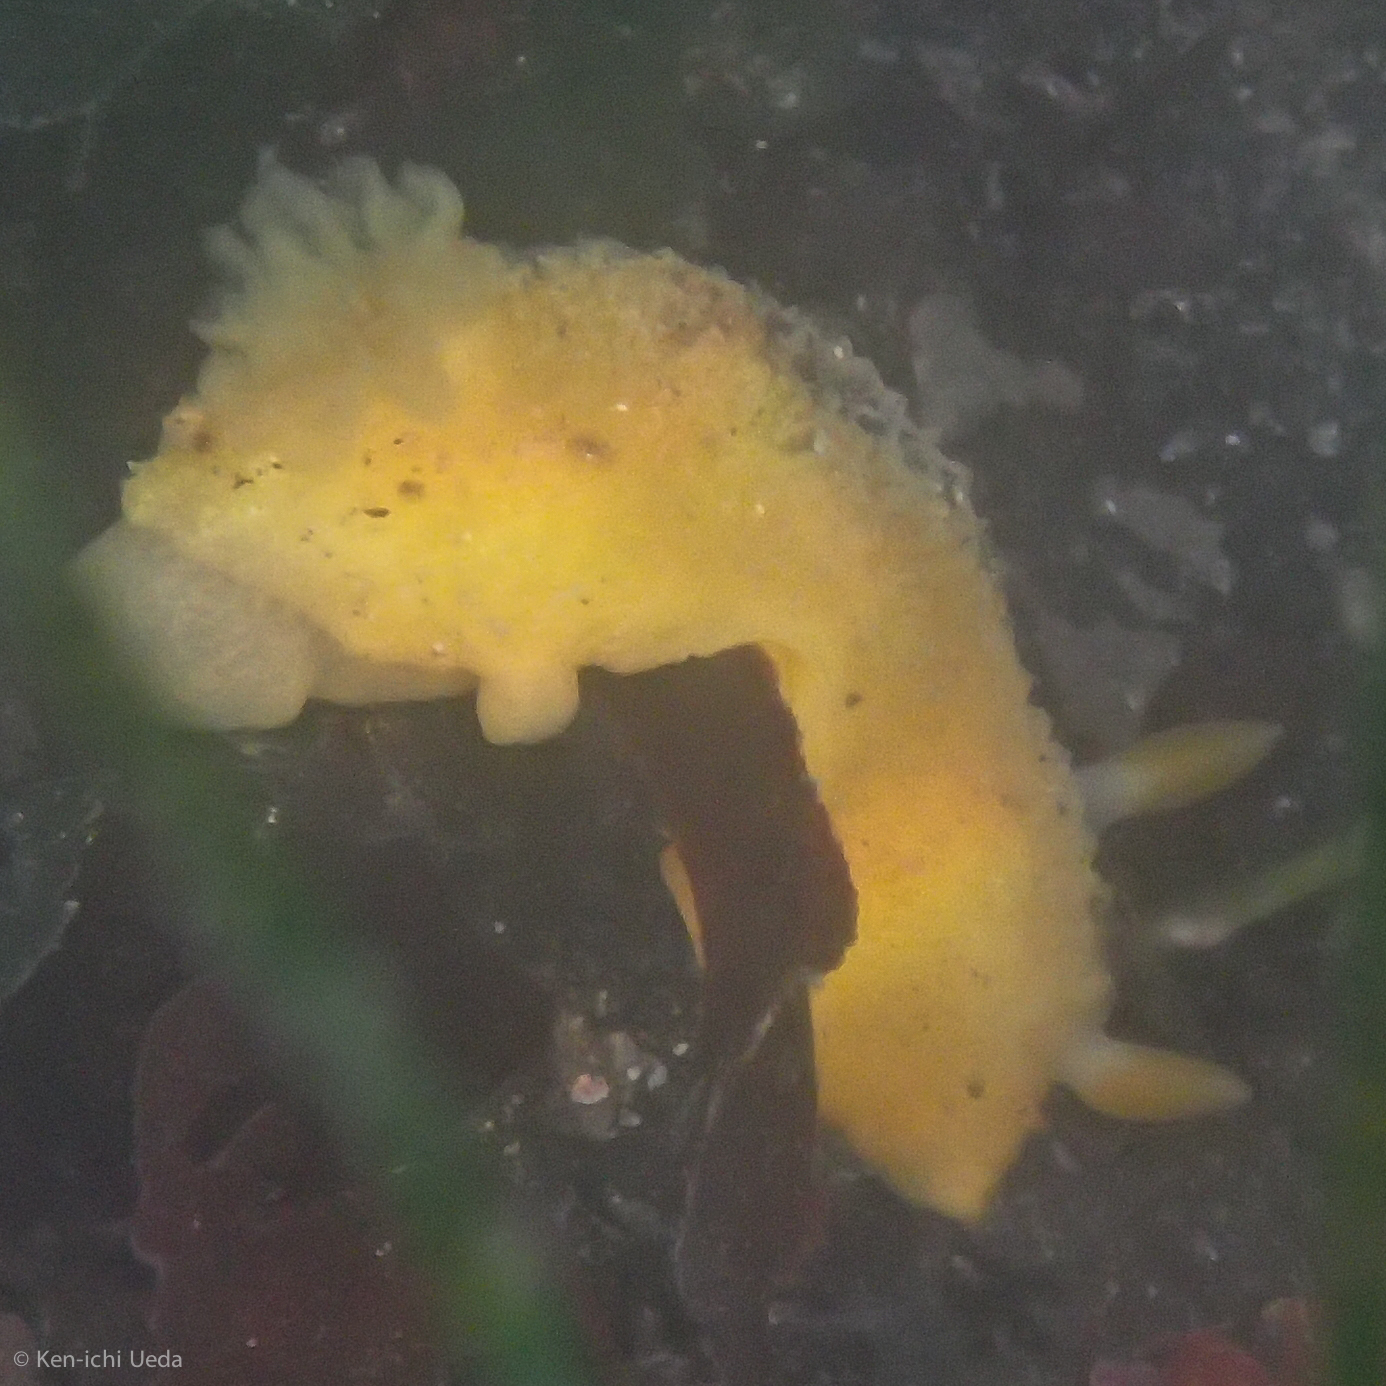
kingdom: Animalia
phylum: Mollusca
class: Gastropoda
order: Nudibranchia
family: Dorididae
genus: Doris
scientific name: Doris montereyensis
